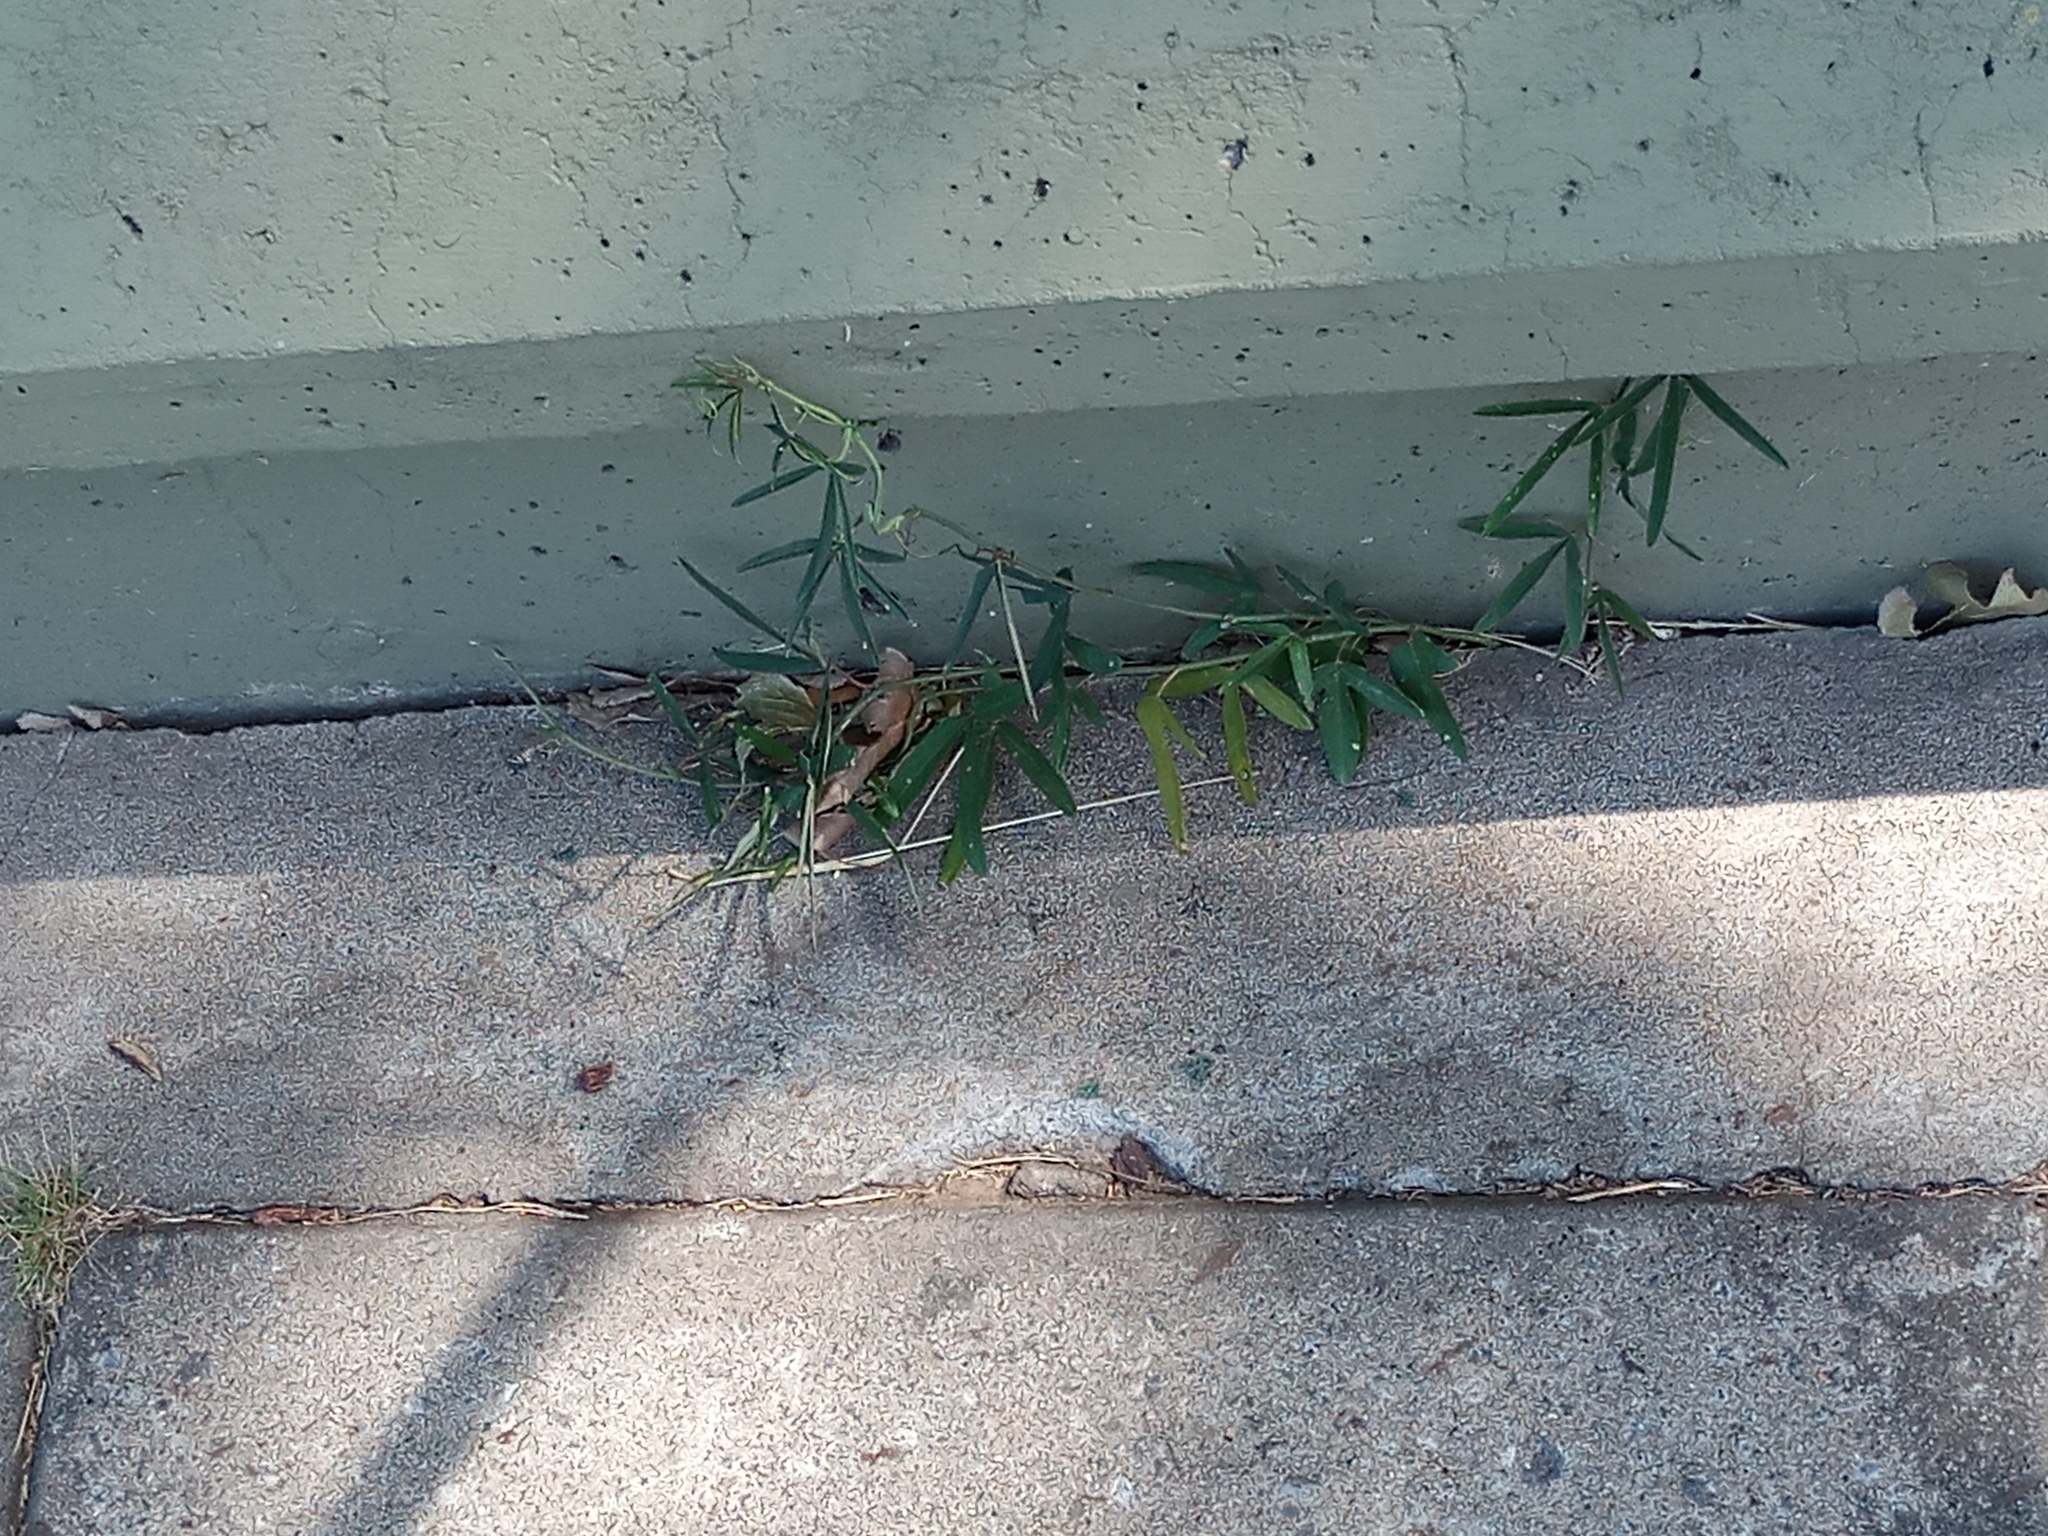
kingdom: Plantae
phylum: Tracheophyta
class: Magnoliopsida
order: Malpighiales
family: Passifloraceae
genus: Passiflora
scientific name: Passiflora caerulea
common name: Blue passionflower
